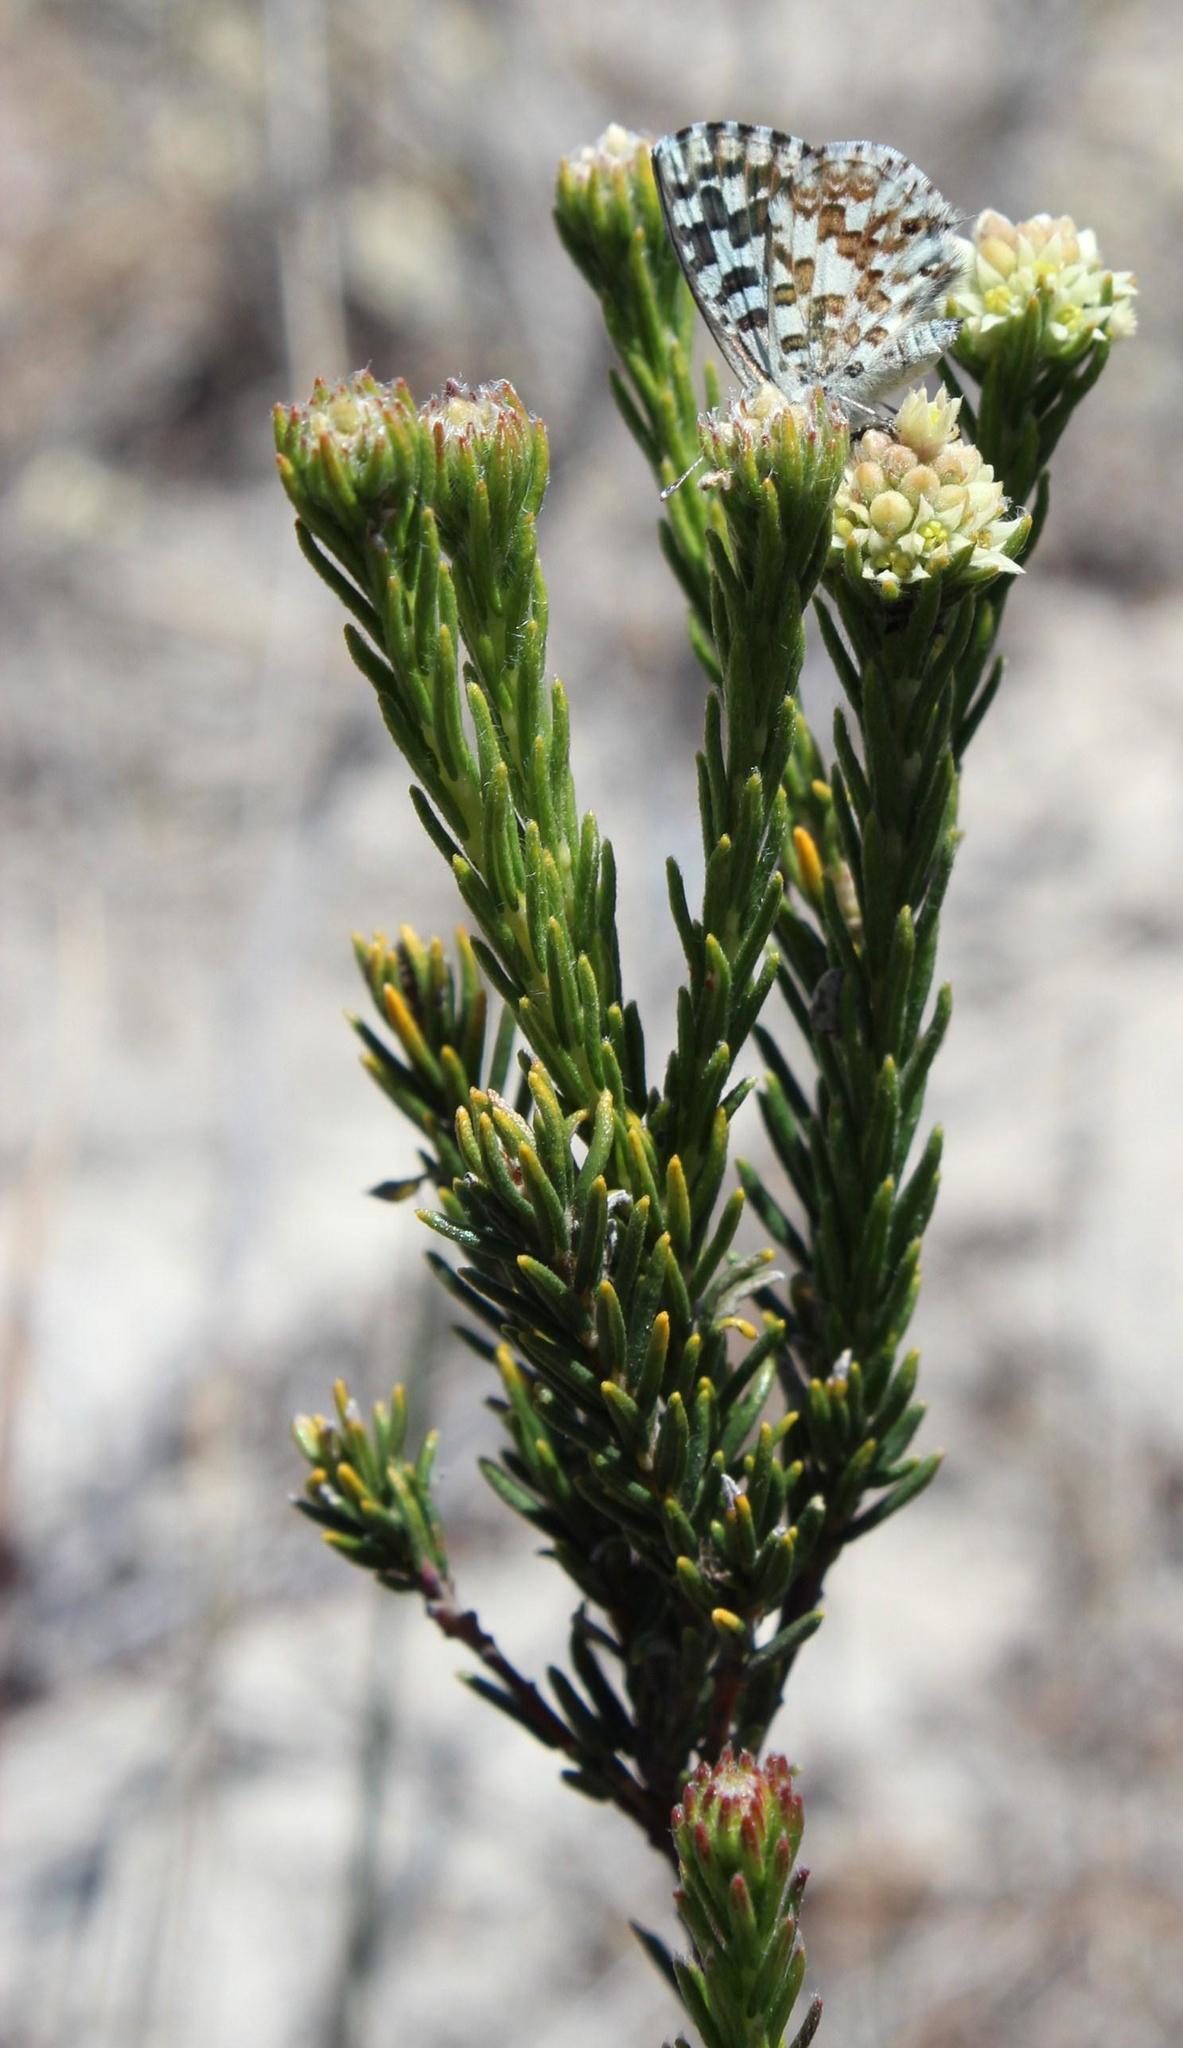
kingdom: Plantae
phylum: Tracheophyta
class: Magnoliopsida
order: Rosales
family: Rhamnaceae
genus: Phylica
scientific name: Phylica imberbis
